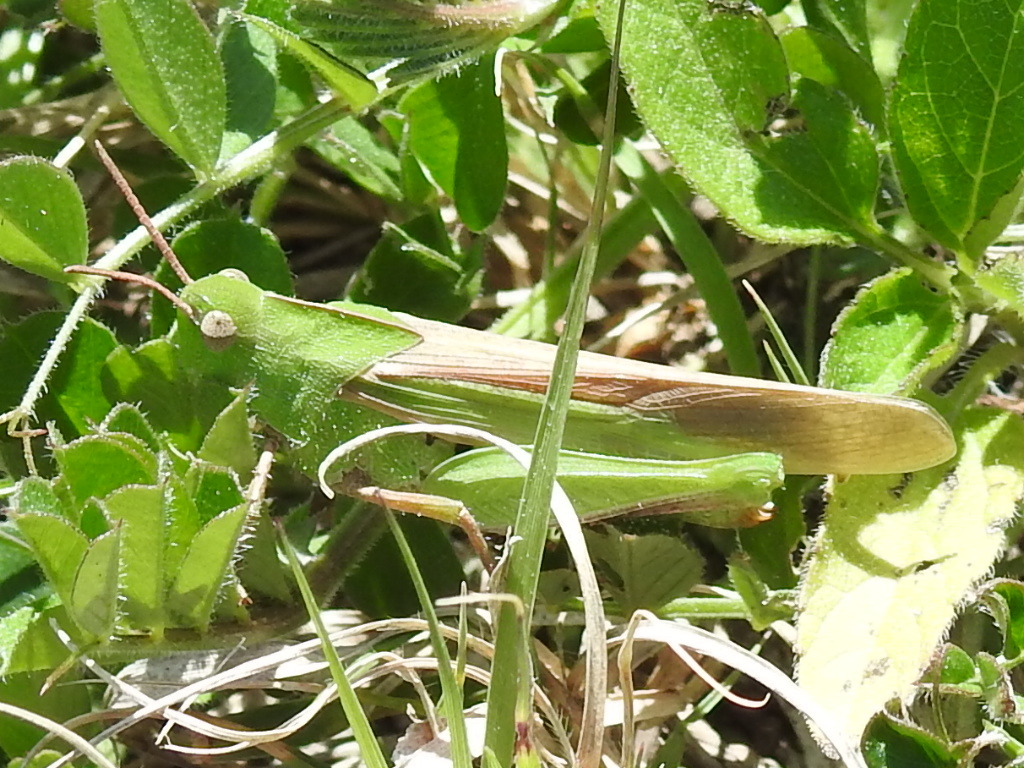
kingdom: Animalia
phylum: Arthropoda
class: Insecta
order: Orthoptera
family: Acrididae
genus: Chortophaga
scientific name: Chortophaga viridifasciata
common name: Green-striped grasshopper
